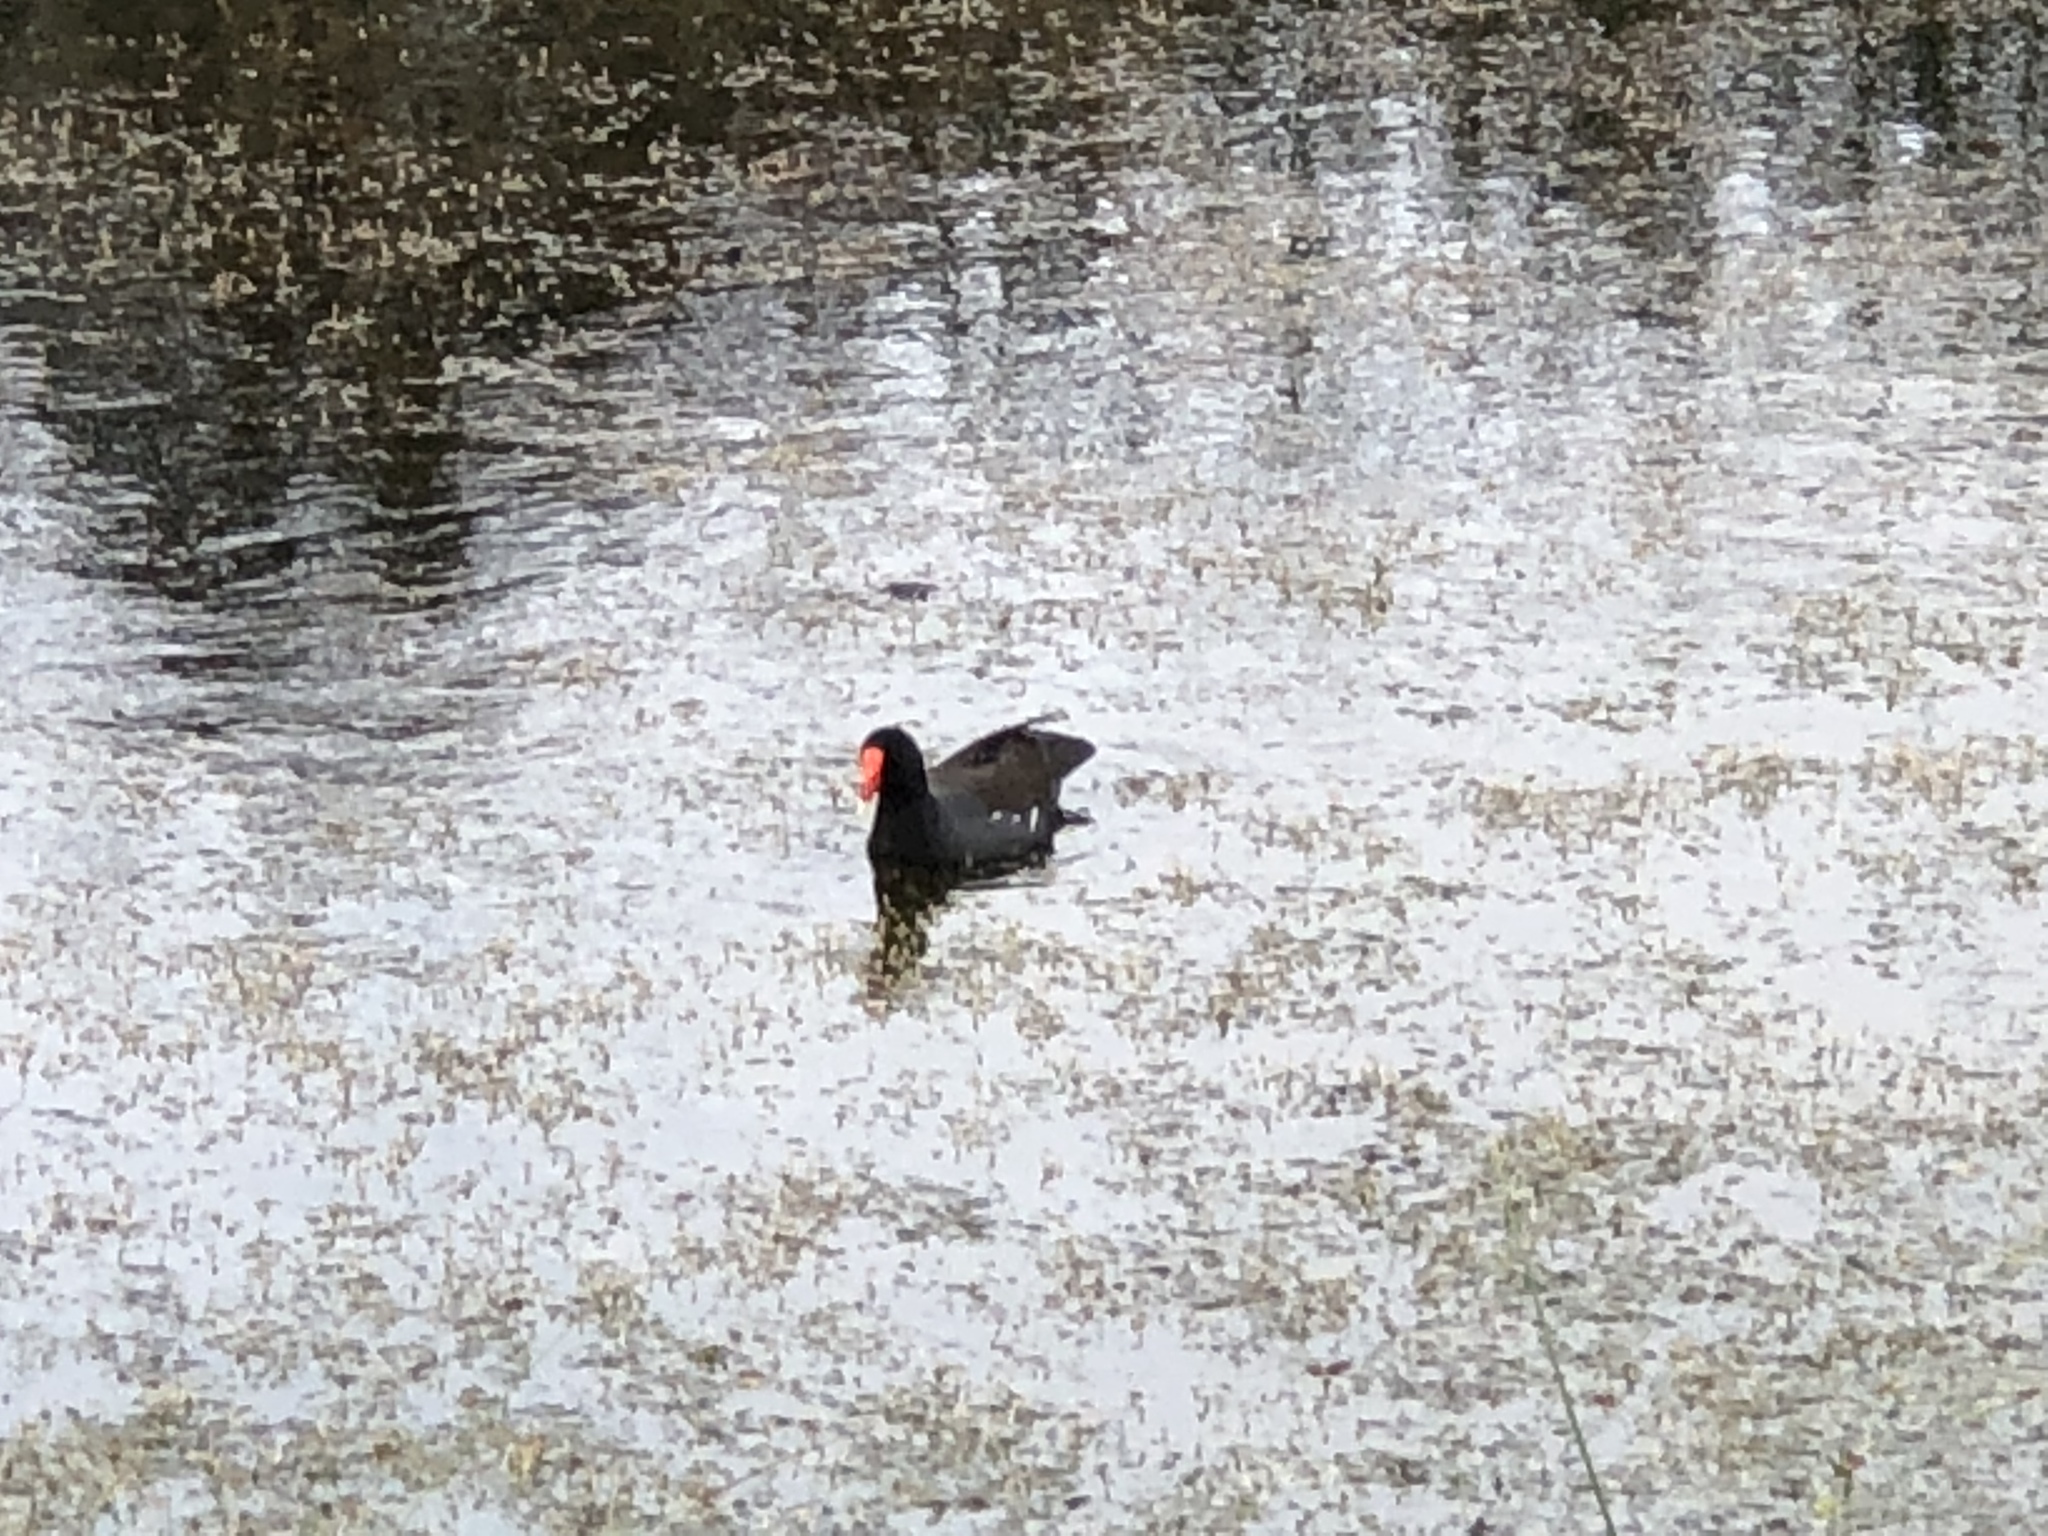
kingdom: Animalia
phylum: Chordata
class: Aves
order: Gruiformes
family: Rallidae
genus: Gallinula
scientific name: Gallinula chloropus
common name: Common moorhen
